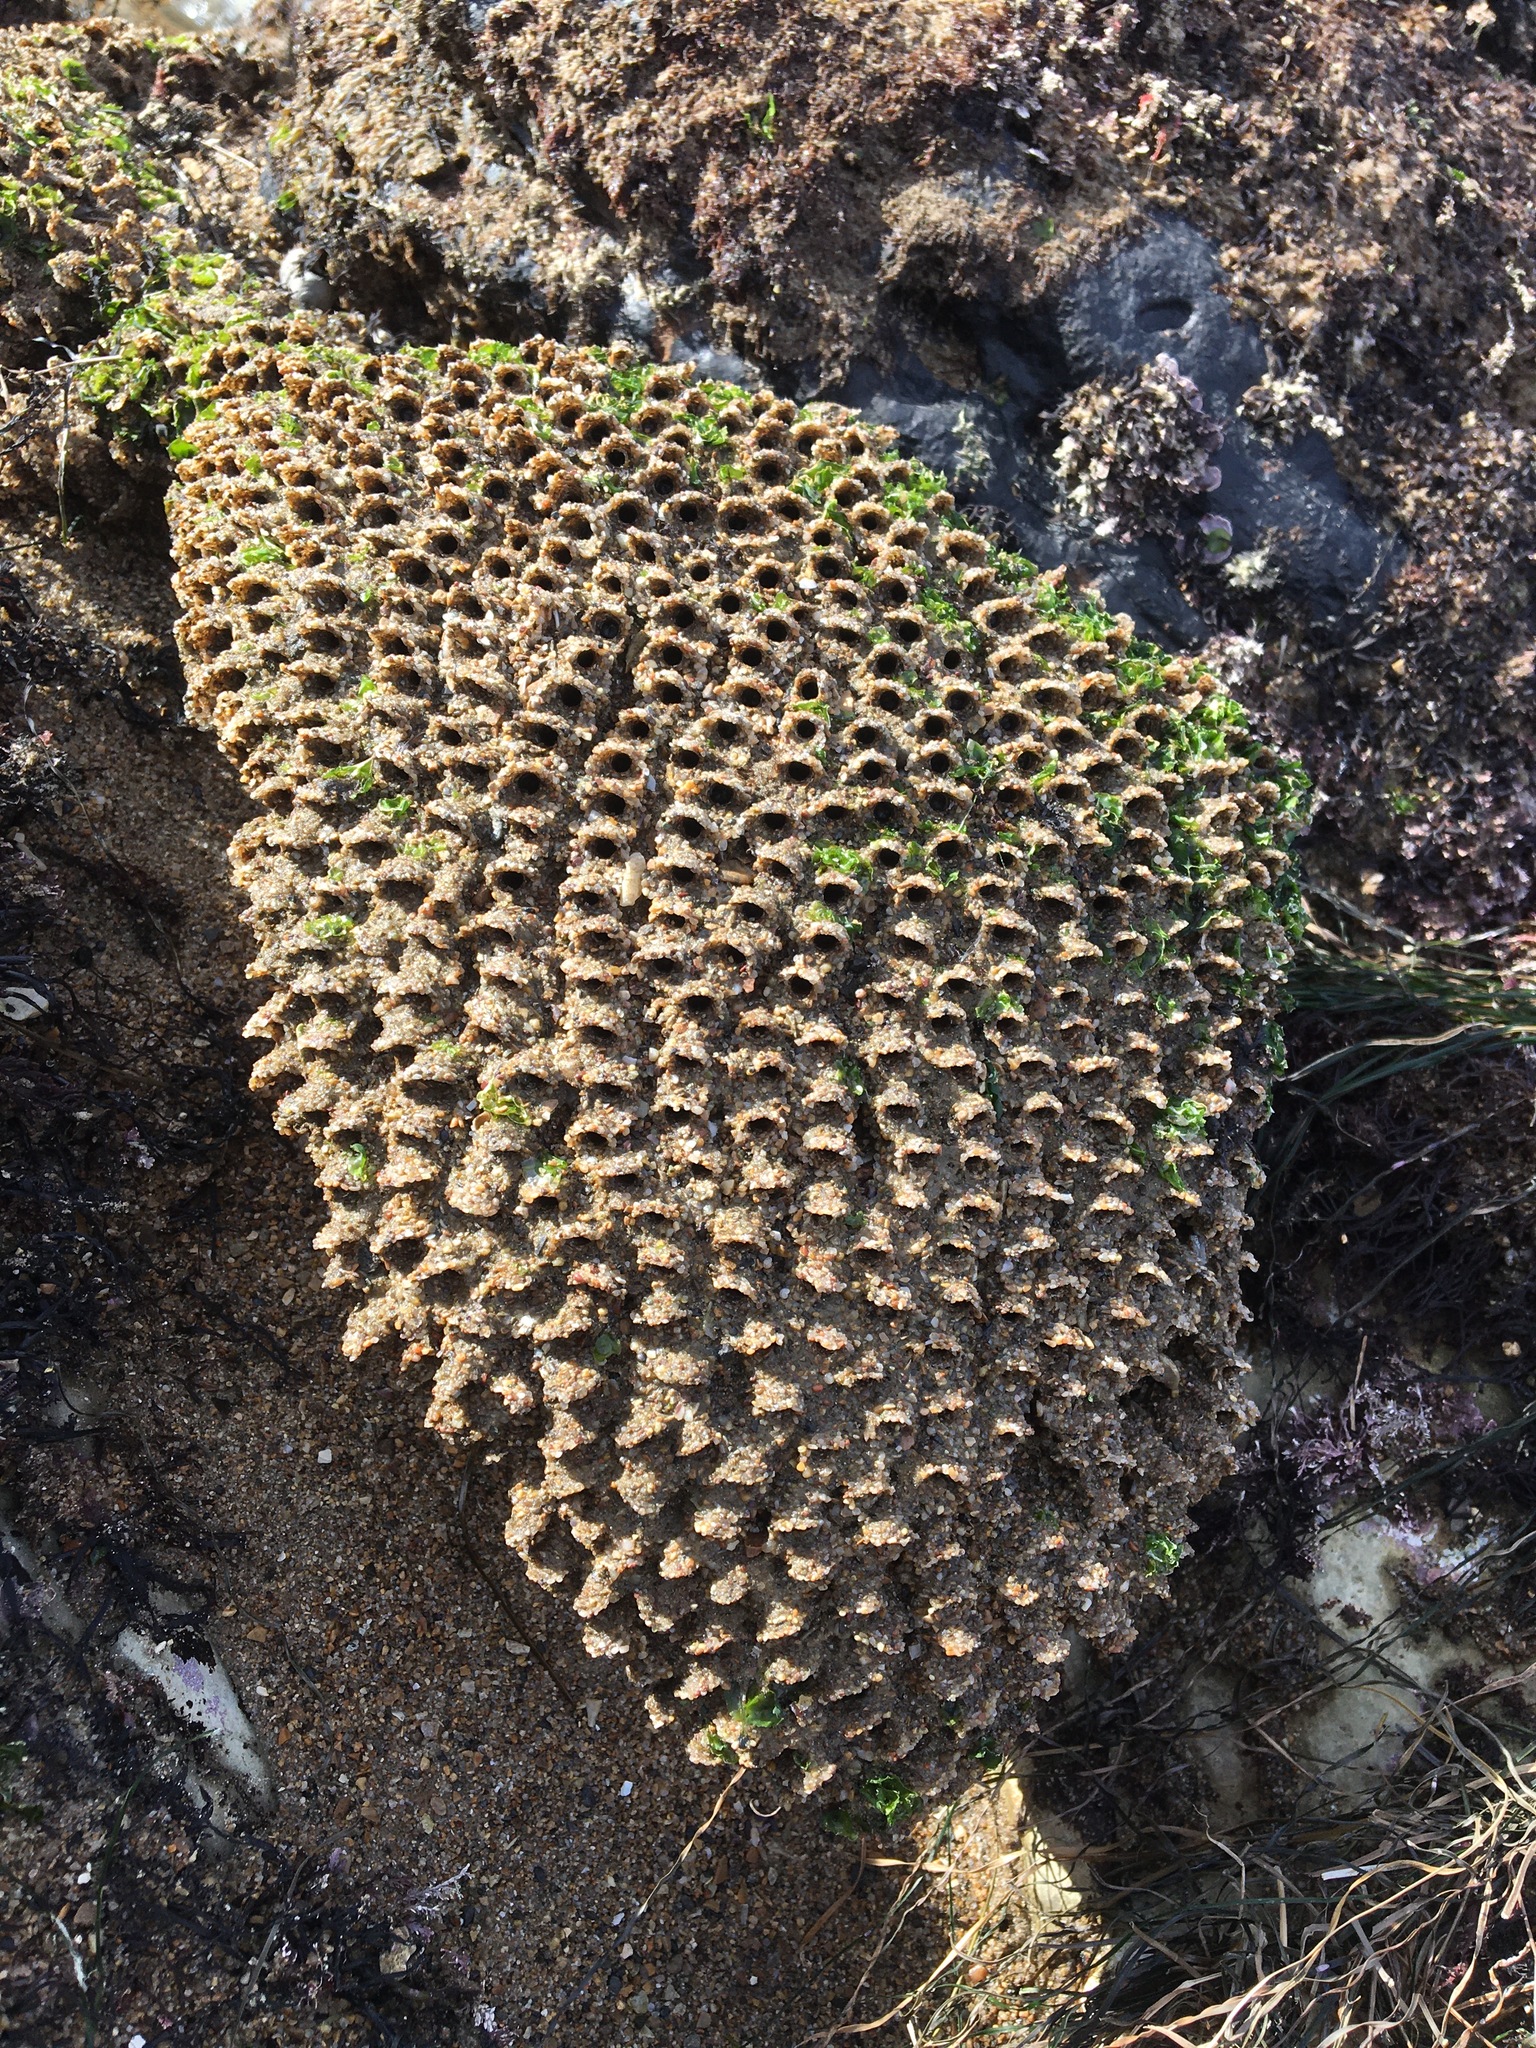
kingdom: Animalia
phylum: Annelida
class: Polychaeta
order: Sabellida
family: Sabellariidae
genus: Phragmatopoma
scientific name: Phragmatopoma californica
